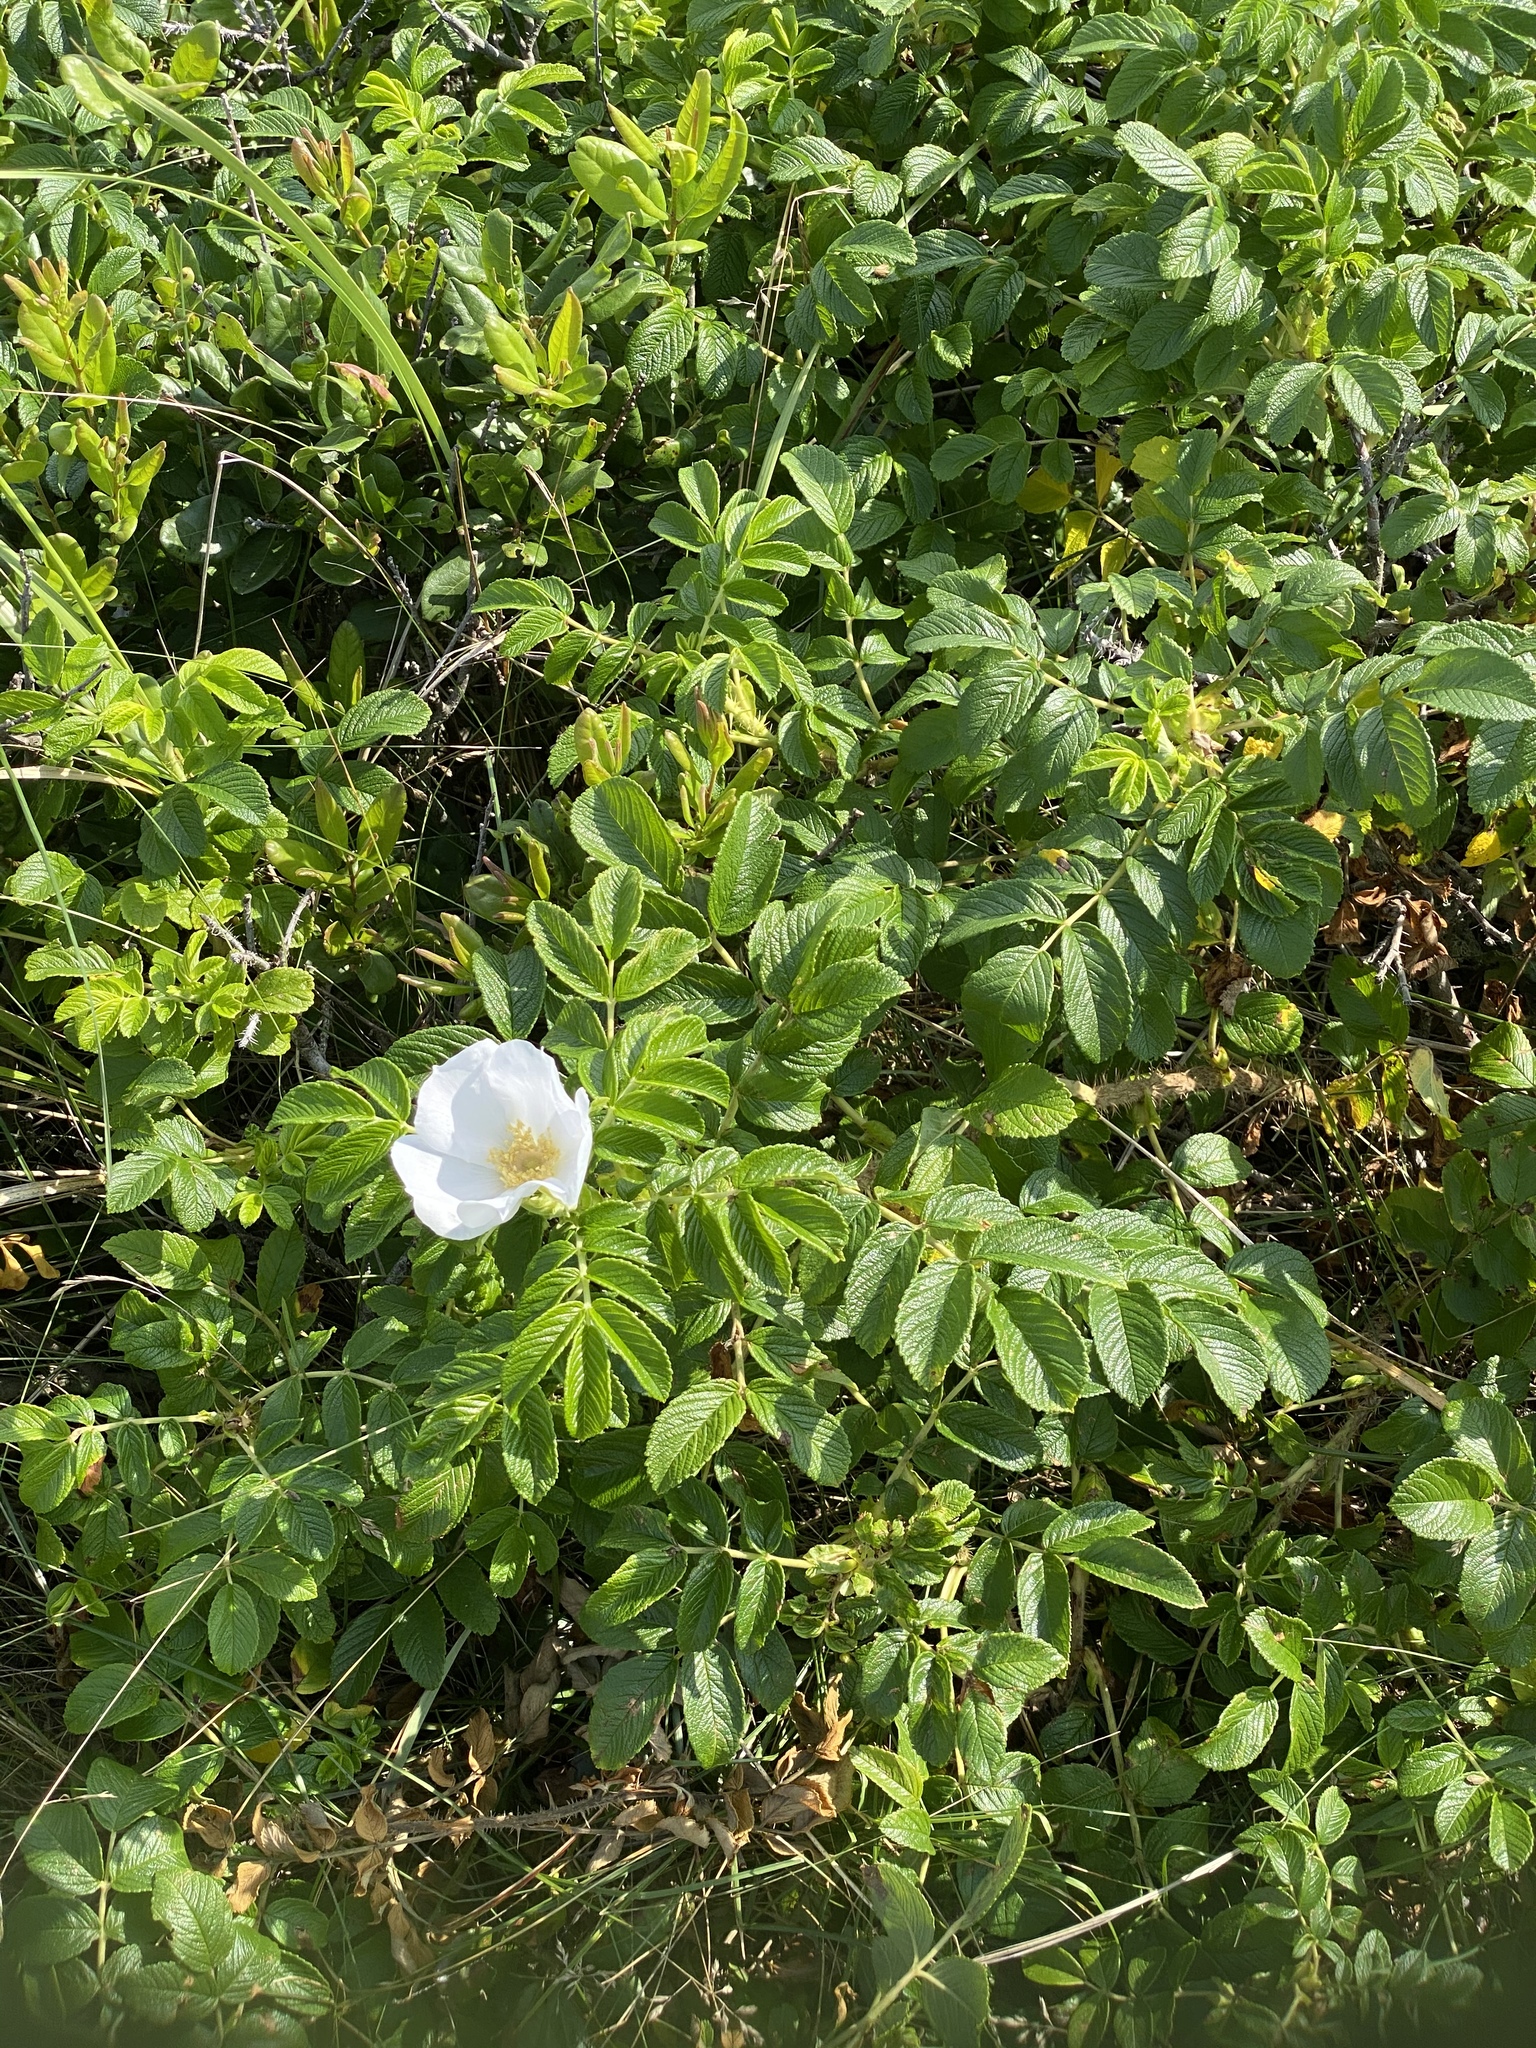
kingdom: Plantae
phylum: Tracheophyta
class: Magnoliopsida
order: Rosales
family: Rosaceae
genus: Rosa
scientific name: Rosa rugosa
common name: Japanese rose
